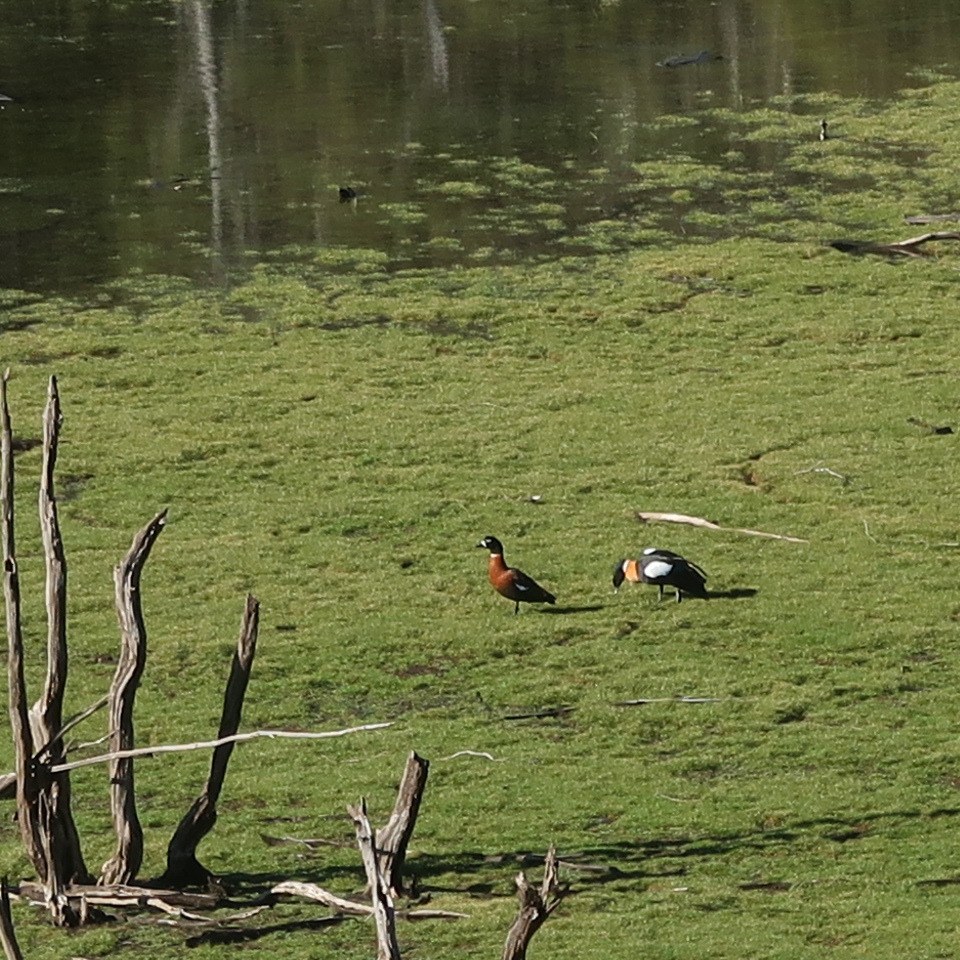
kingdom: Animalia
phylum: Chordata
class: Aves
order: Anseriformes
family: Anatidae
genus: Tadorna
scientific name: Tadorna tadornoides
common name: Australian shelduck
